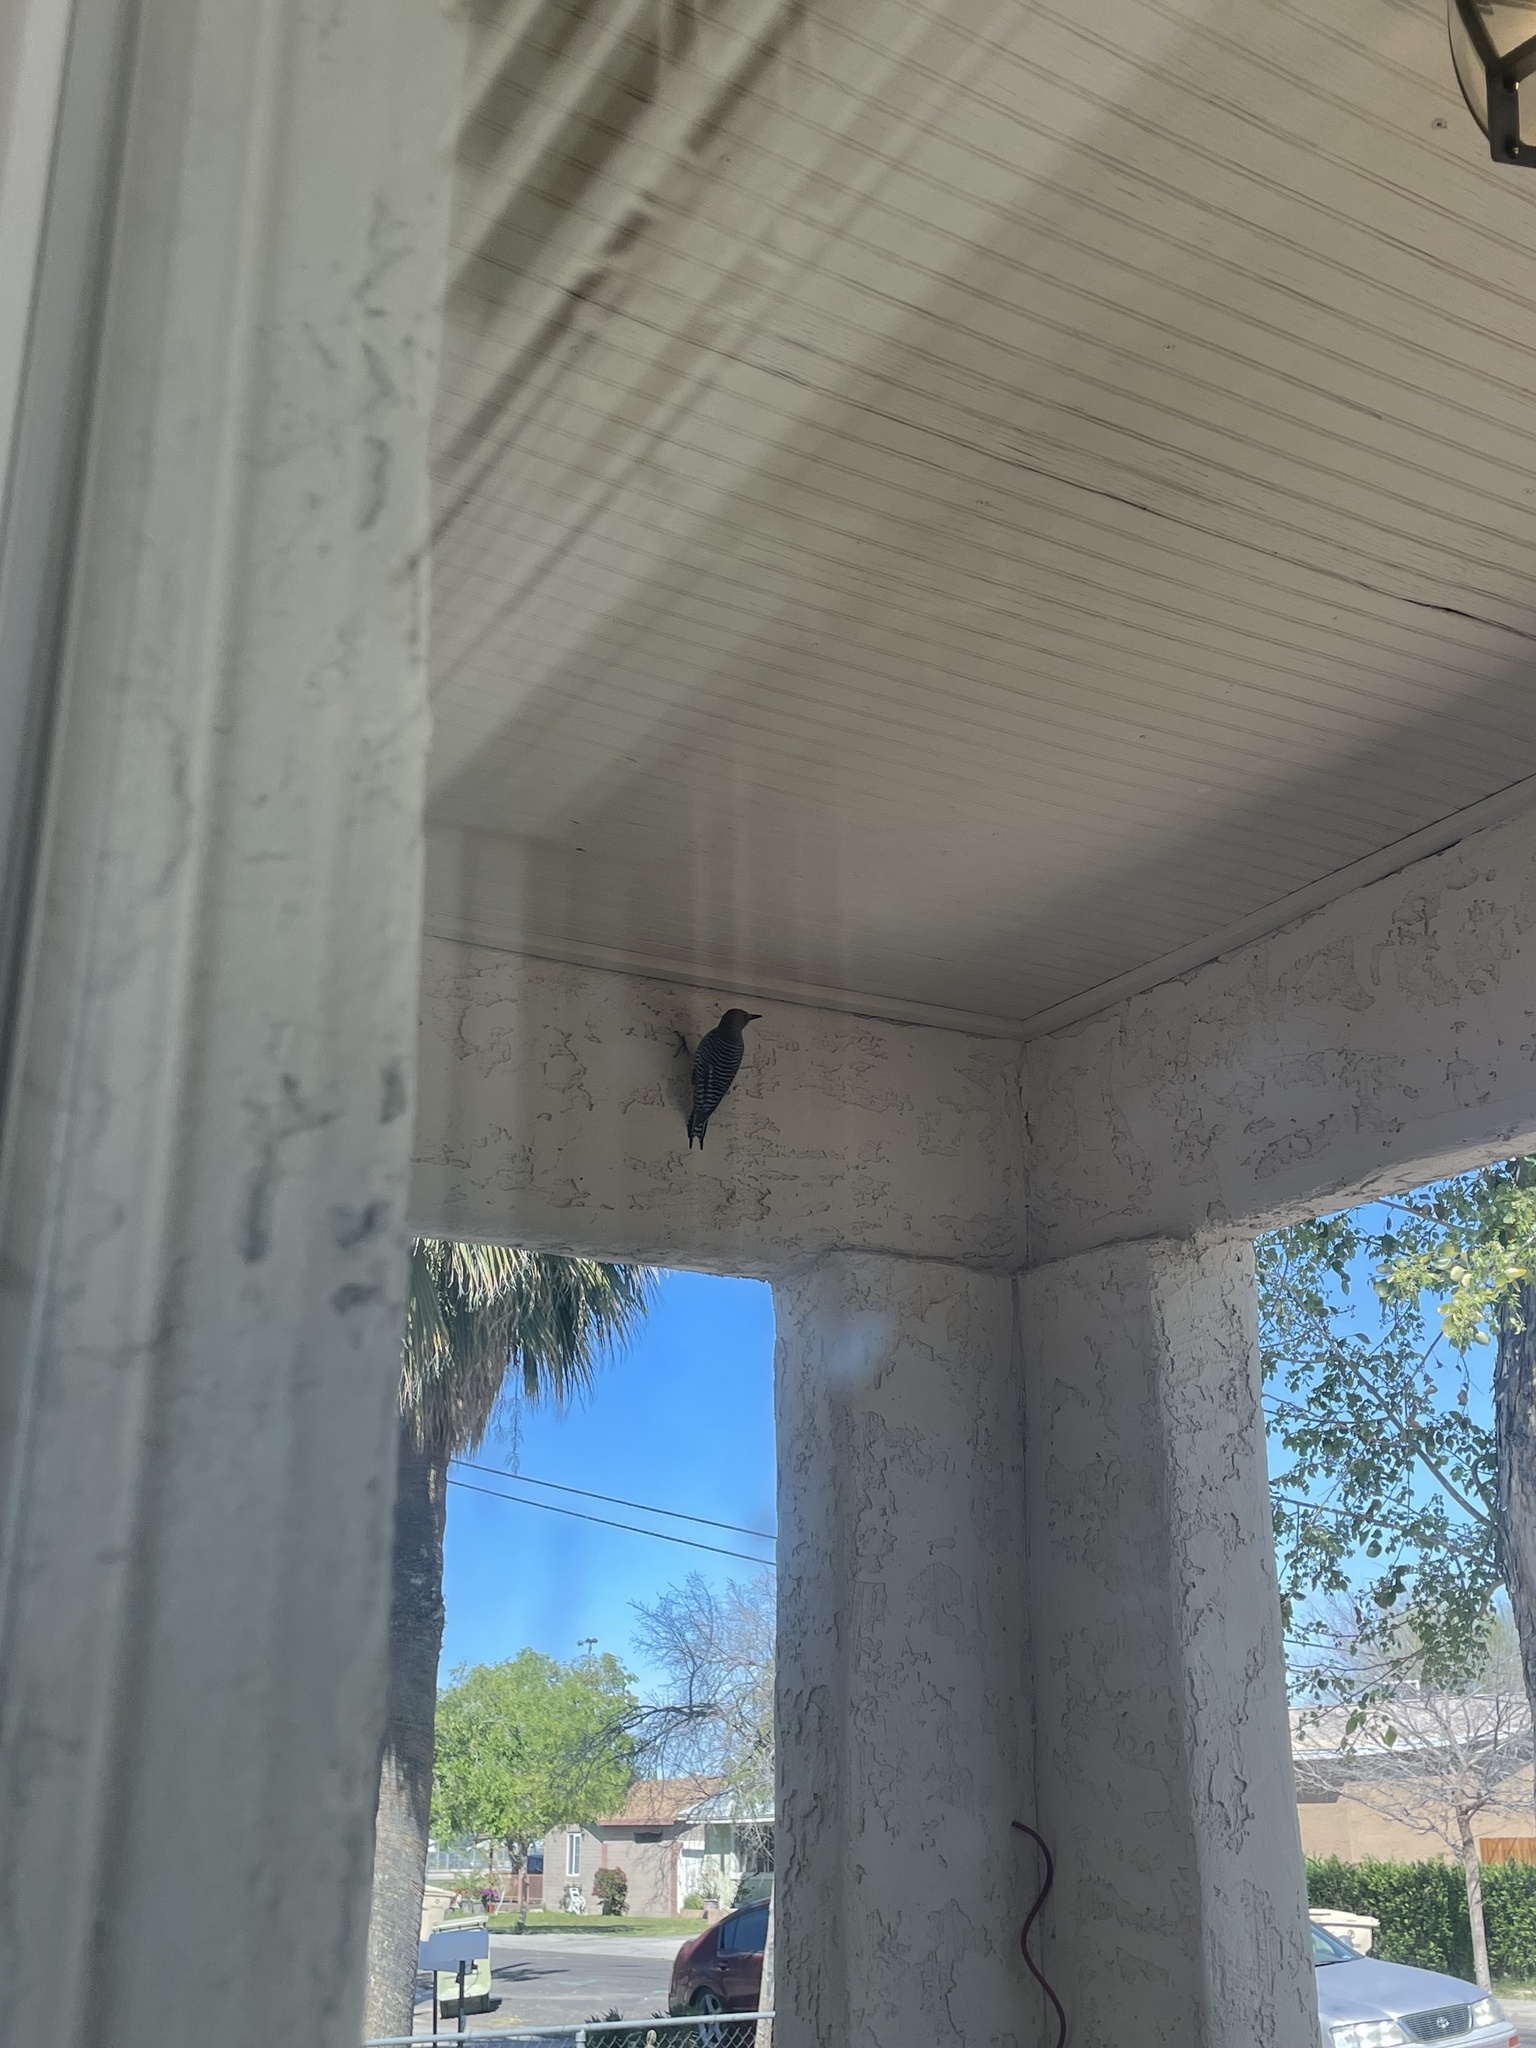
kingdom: Animalia
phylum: Chordata
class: Aves
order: Piciformes
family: Picidae
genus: Melanerpes
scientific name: Melanerpes uropygialis
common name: Gila woodpecker
